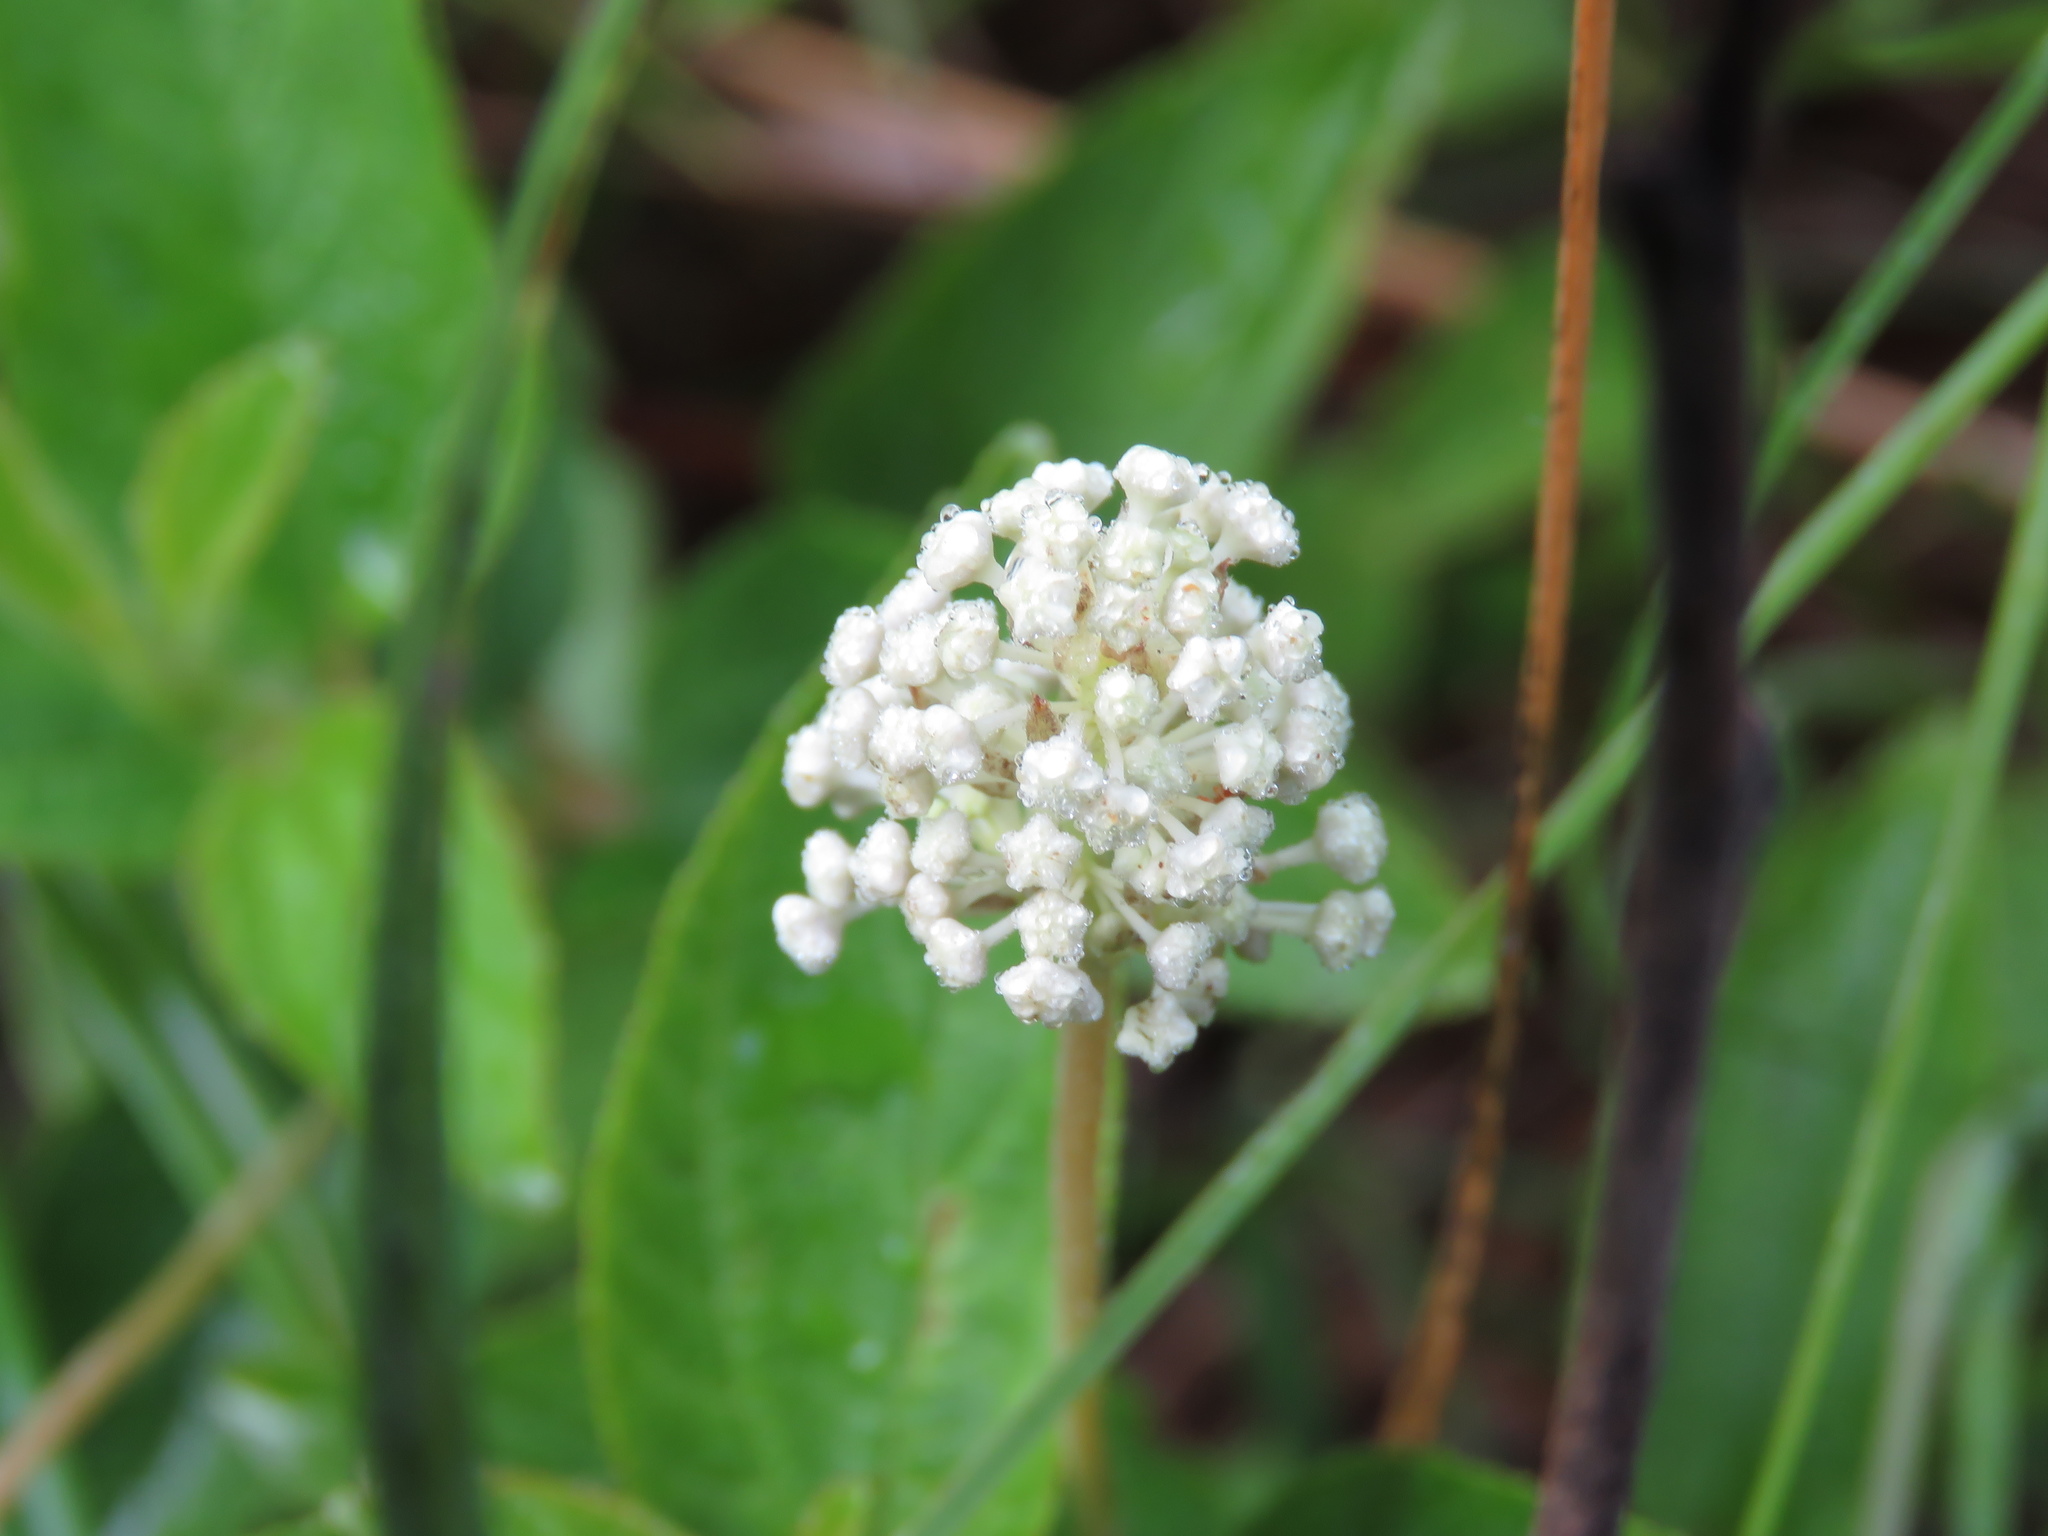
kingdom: Plantae
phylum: Tracheophyta
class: Magnoliopsida
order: Rosales
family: Rhamnaceae
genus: Ceanothus
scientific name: Ceanothus americanus
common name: Redroot
